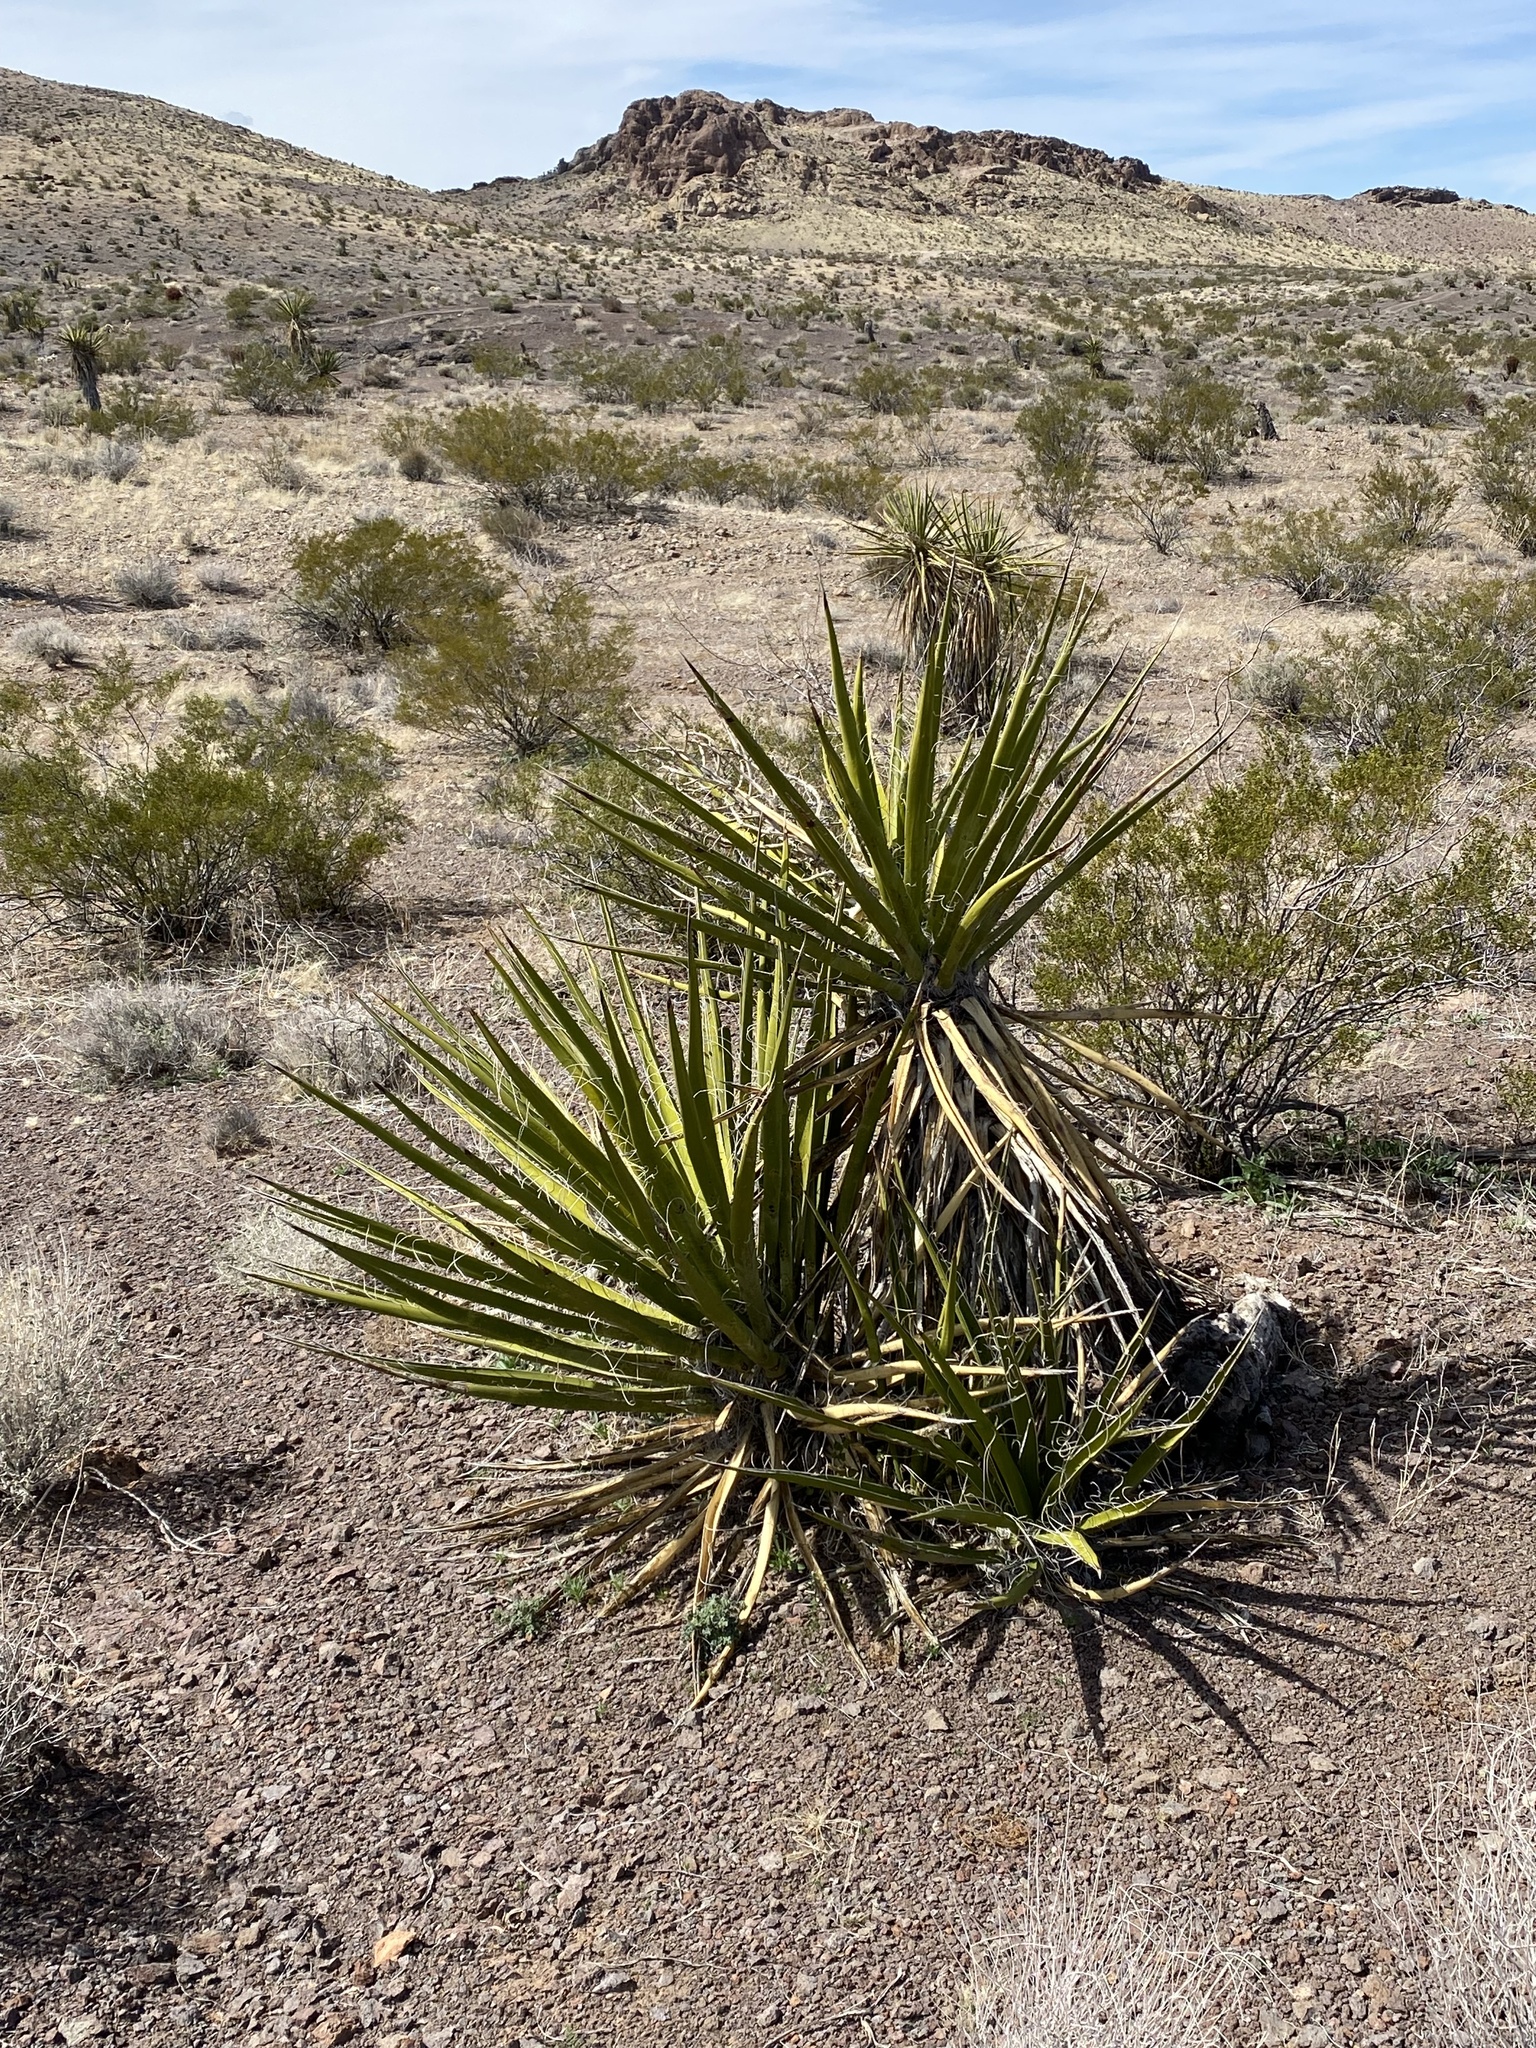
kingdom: Plantae
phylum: Tracheophyta
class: Liliopsida
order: Asparagales
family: Asparagaceae
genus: Yucca
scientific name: Yucca schidigera
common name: Mojave yucca
